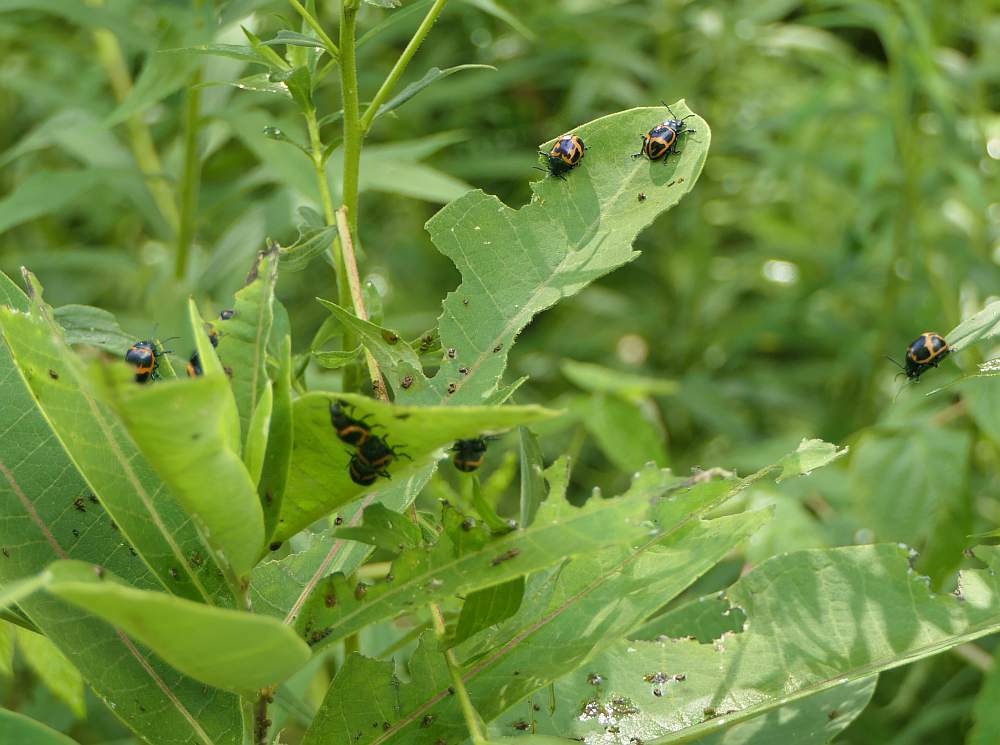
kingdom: Animalia
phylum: Arthropoda
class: Insecta
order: Coleoptera
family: Chrysomelidae
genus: Labidomera
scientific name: Labidomera clivicollis
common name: Swamp milkweed leaf beetle
